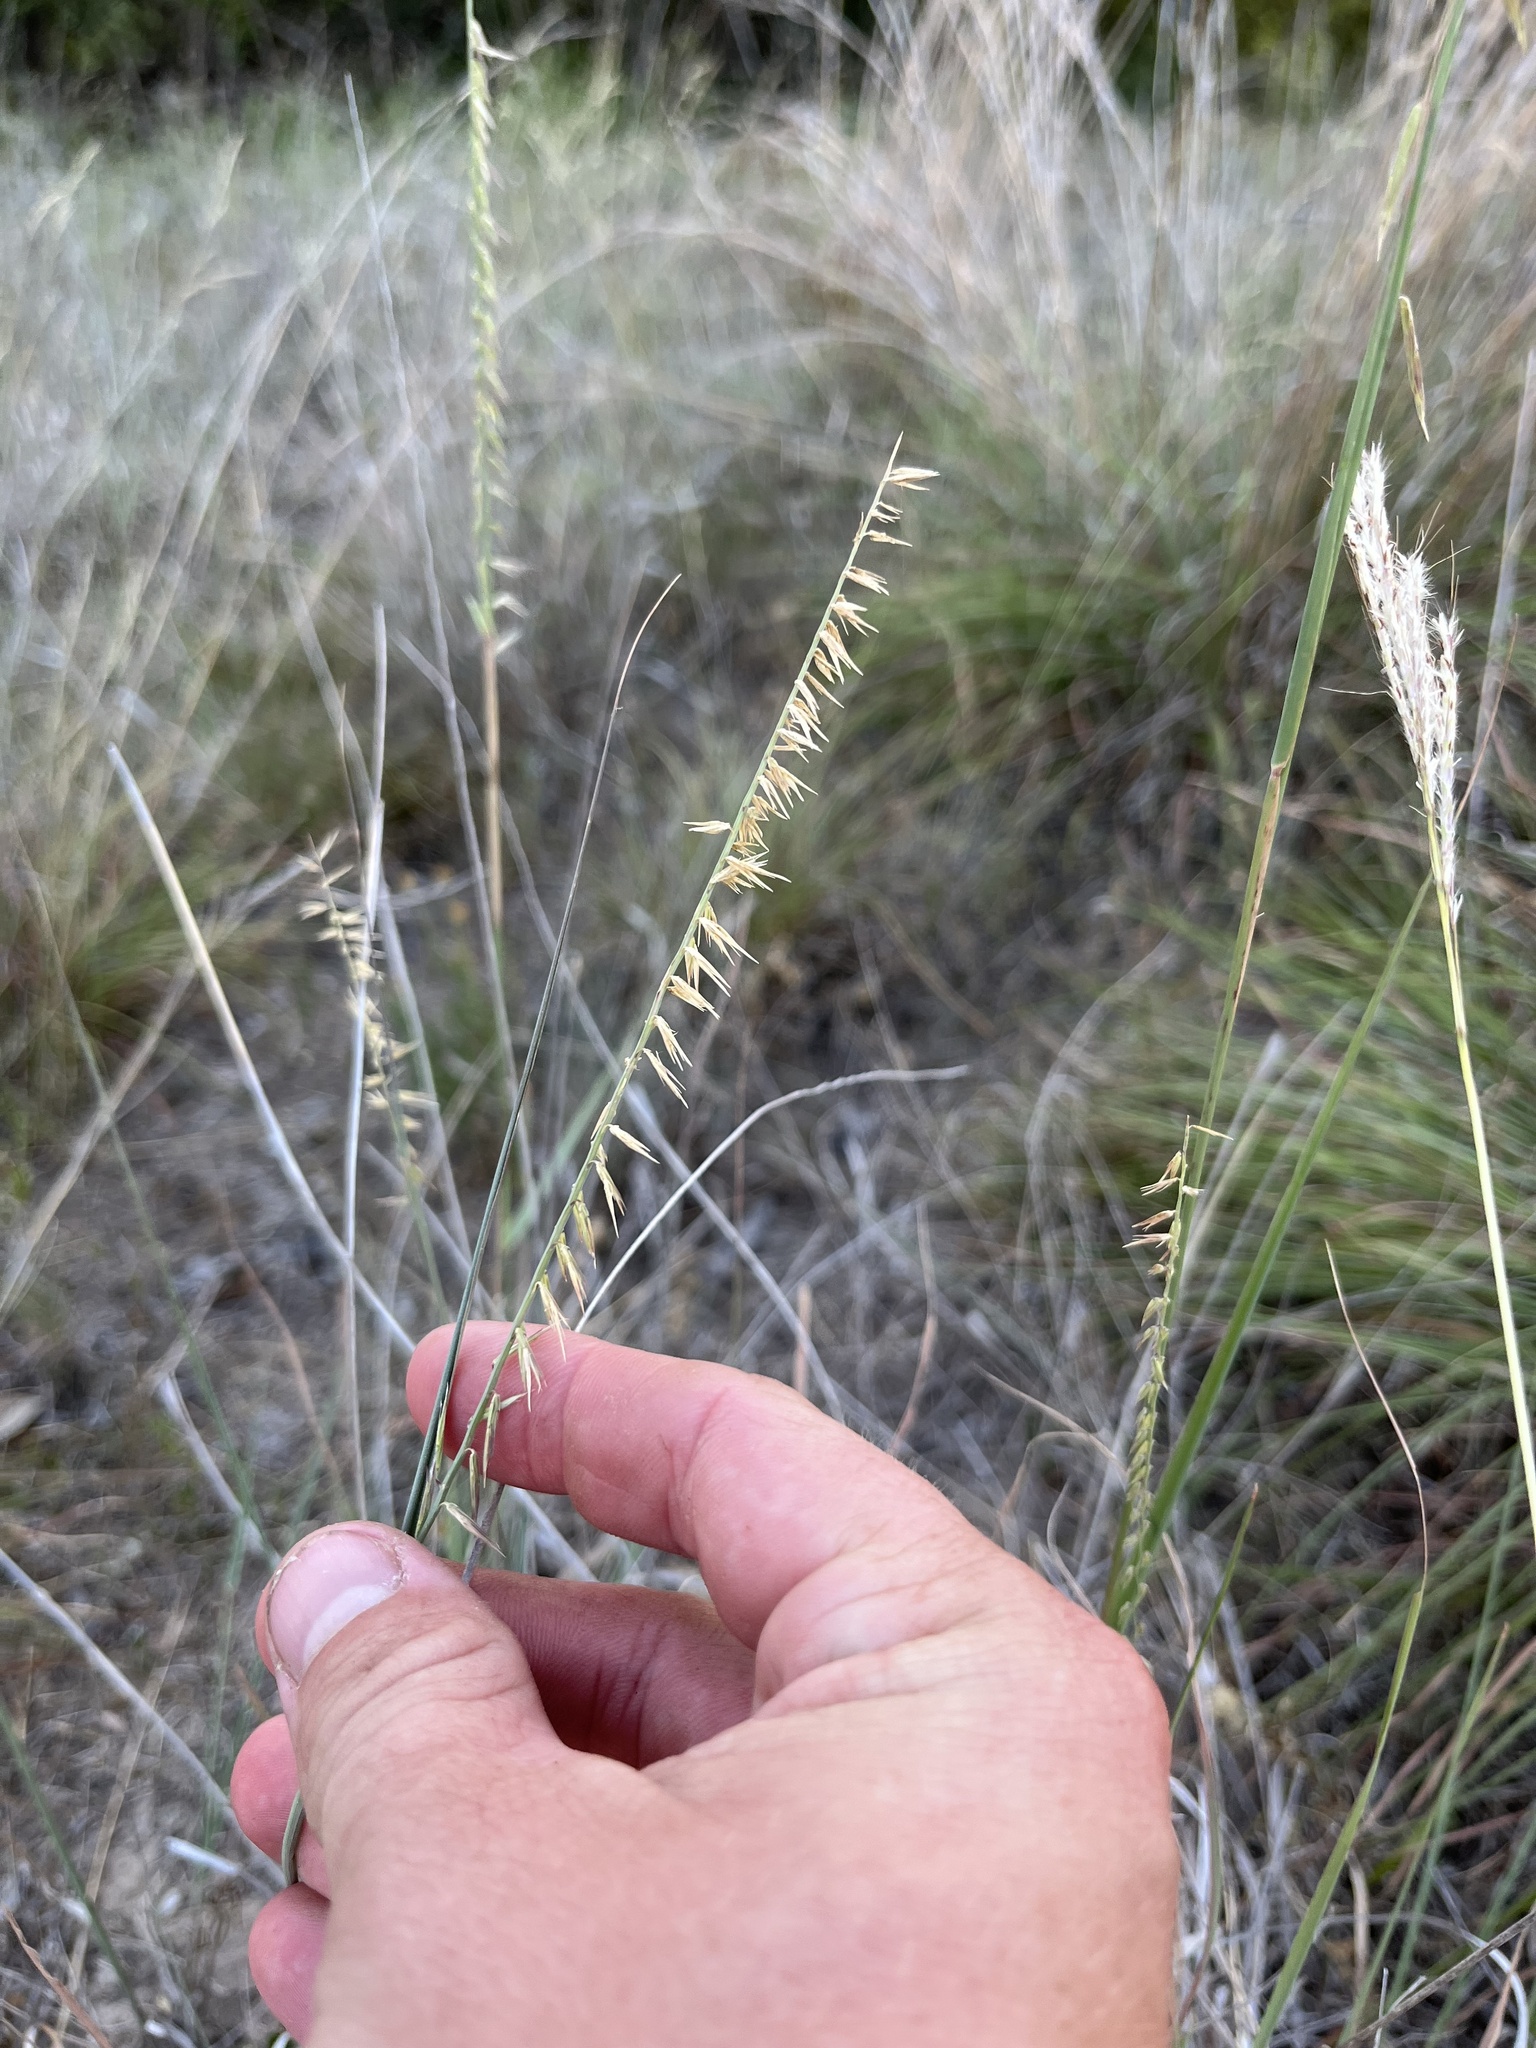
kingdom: Plantae
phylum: Tracheophyta
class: Liliopsida
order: Poales
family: Poaceae
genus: Bouteloua
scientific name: Bouteloua curtipendula
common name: Side-oats grama
